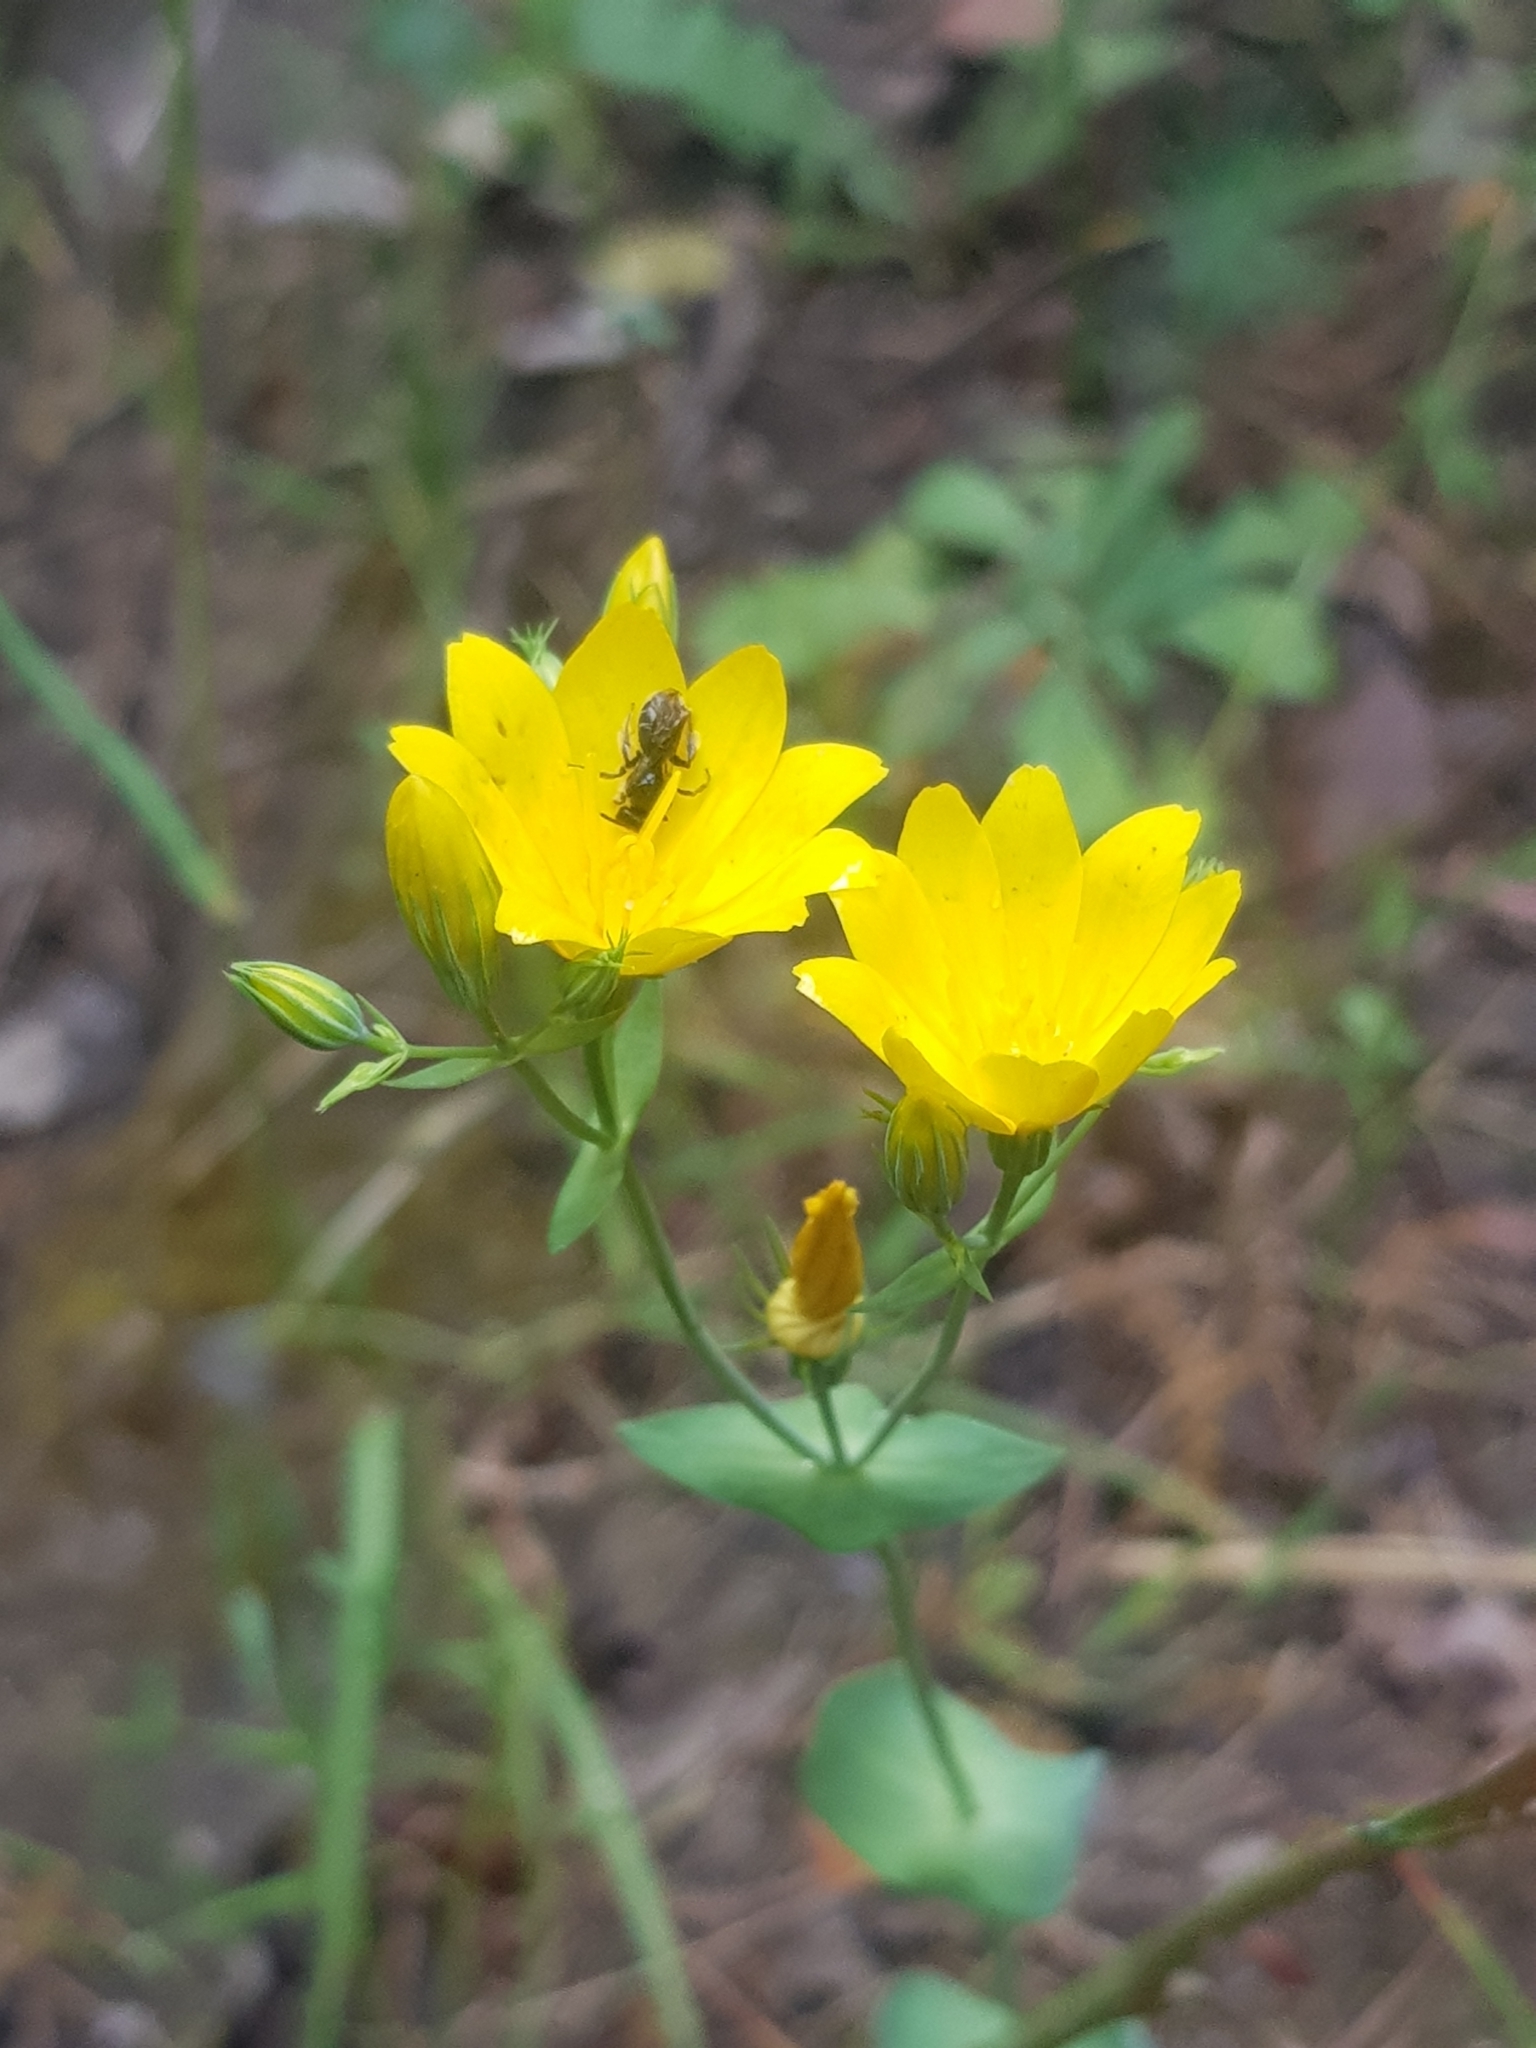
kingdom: Plantae
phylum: Tracheophyta
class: Magnoliopsida
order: Gentianales
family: Gentianaceae
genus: Blackstonia
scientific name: Blackstonia grandiflora
